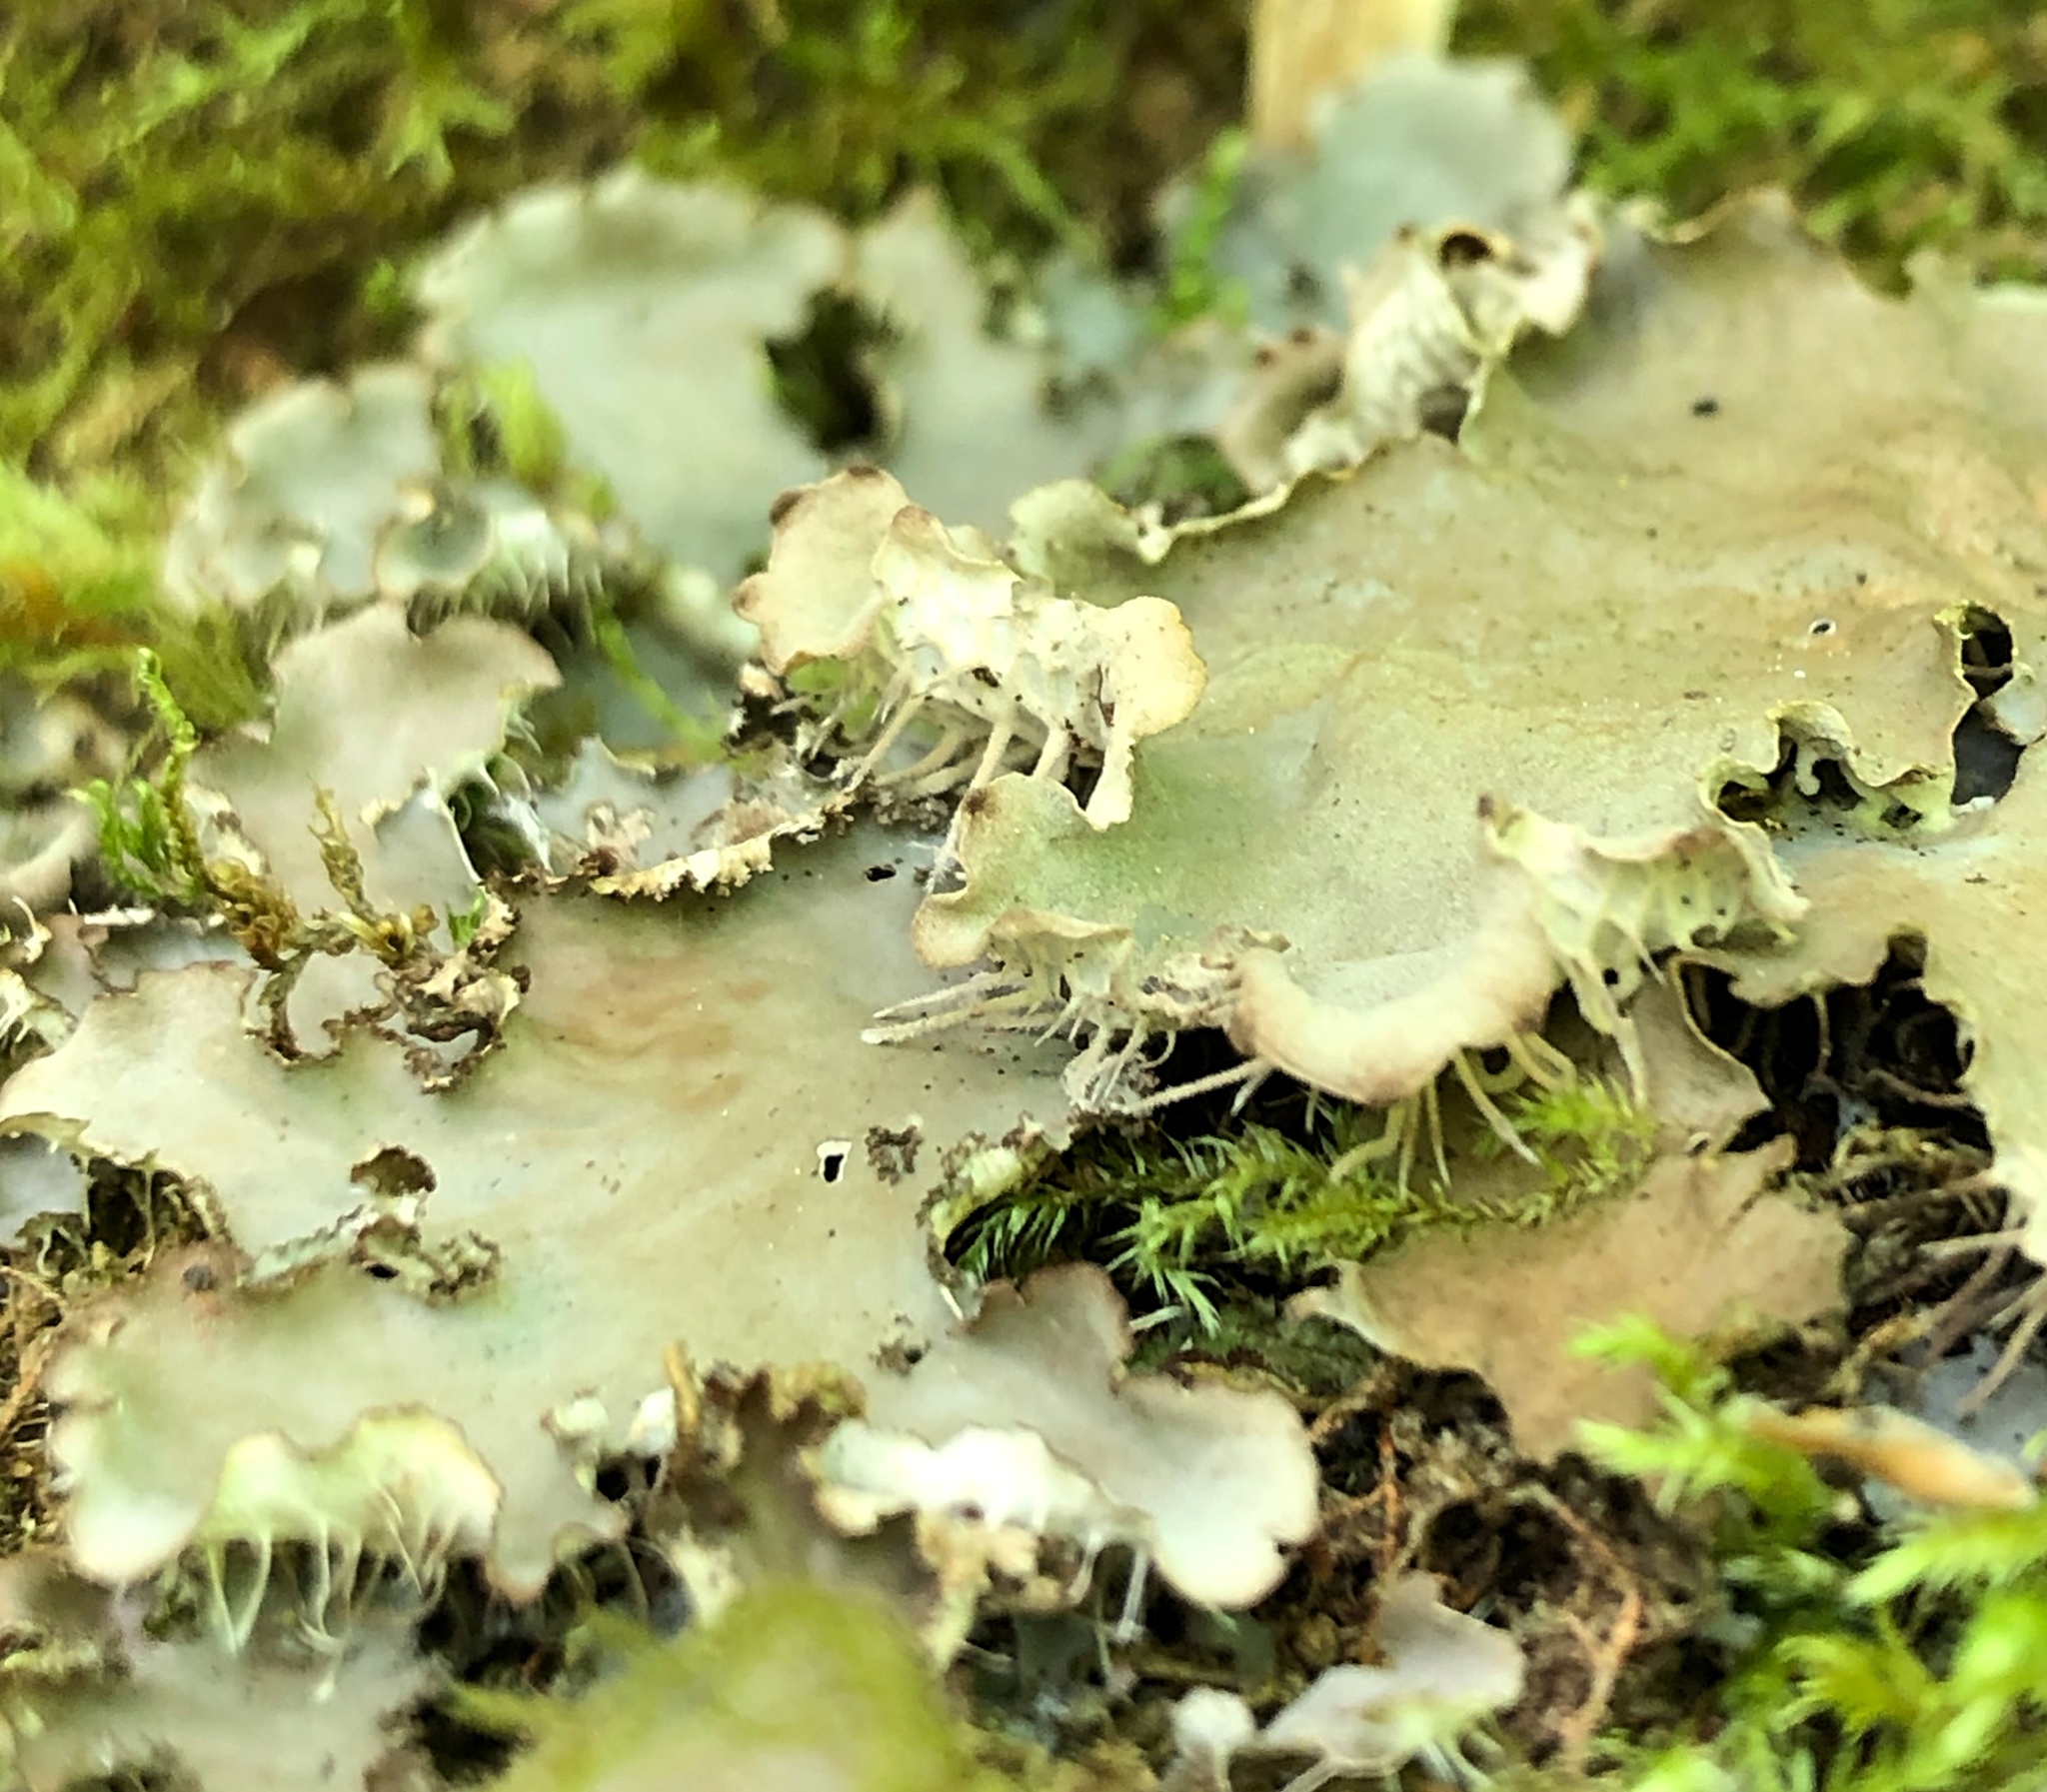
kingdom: Fungi
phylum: Ascomycota
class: Lecanoromycetes
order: Peltigerales
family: Peltigeraceae
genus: Peltigera
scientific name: Peltigera praetextata
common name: Scaly dog-lichen
